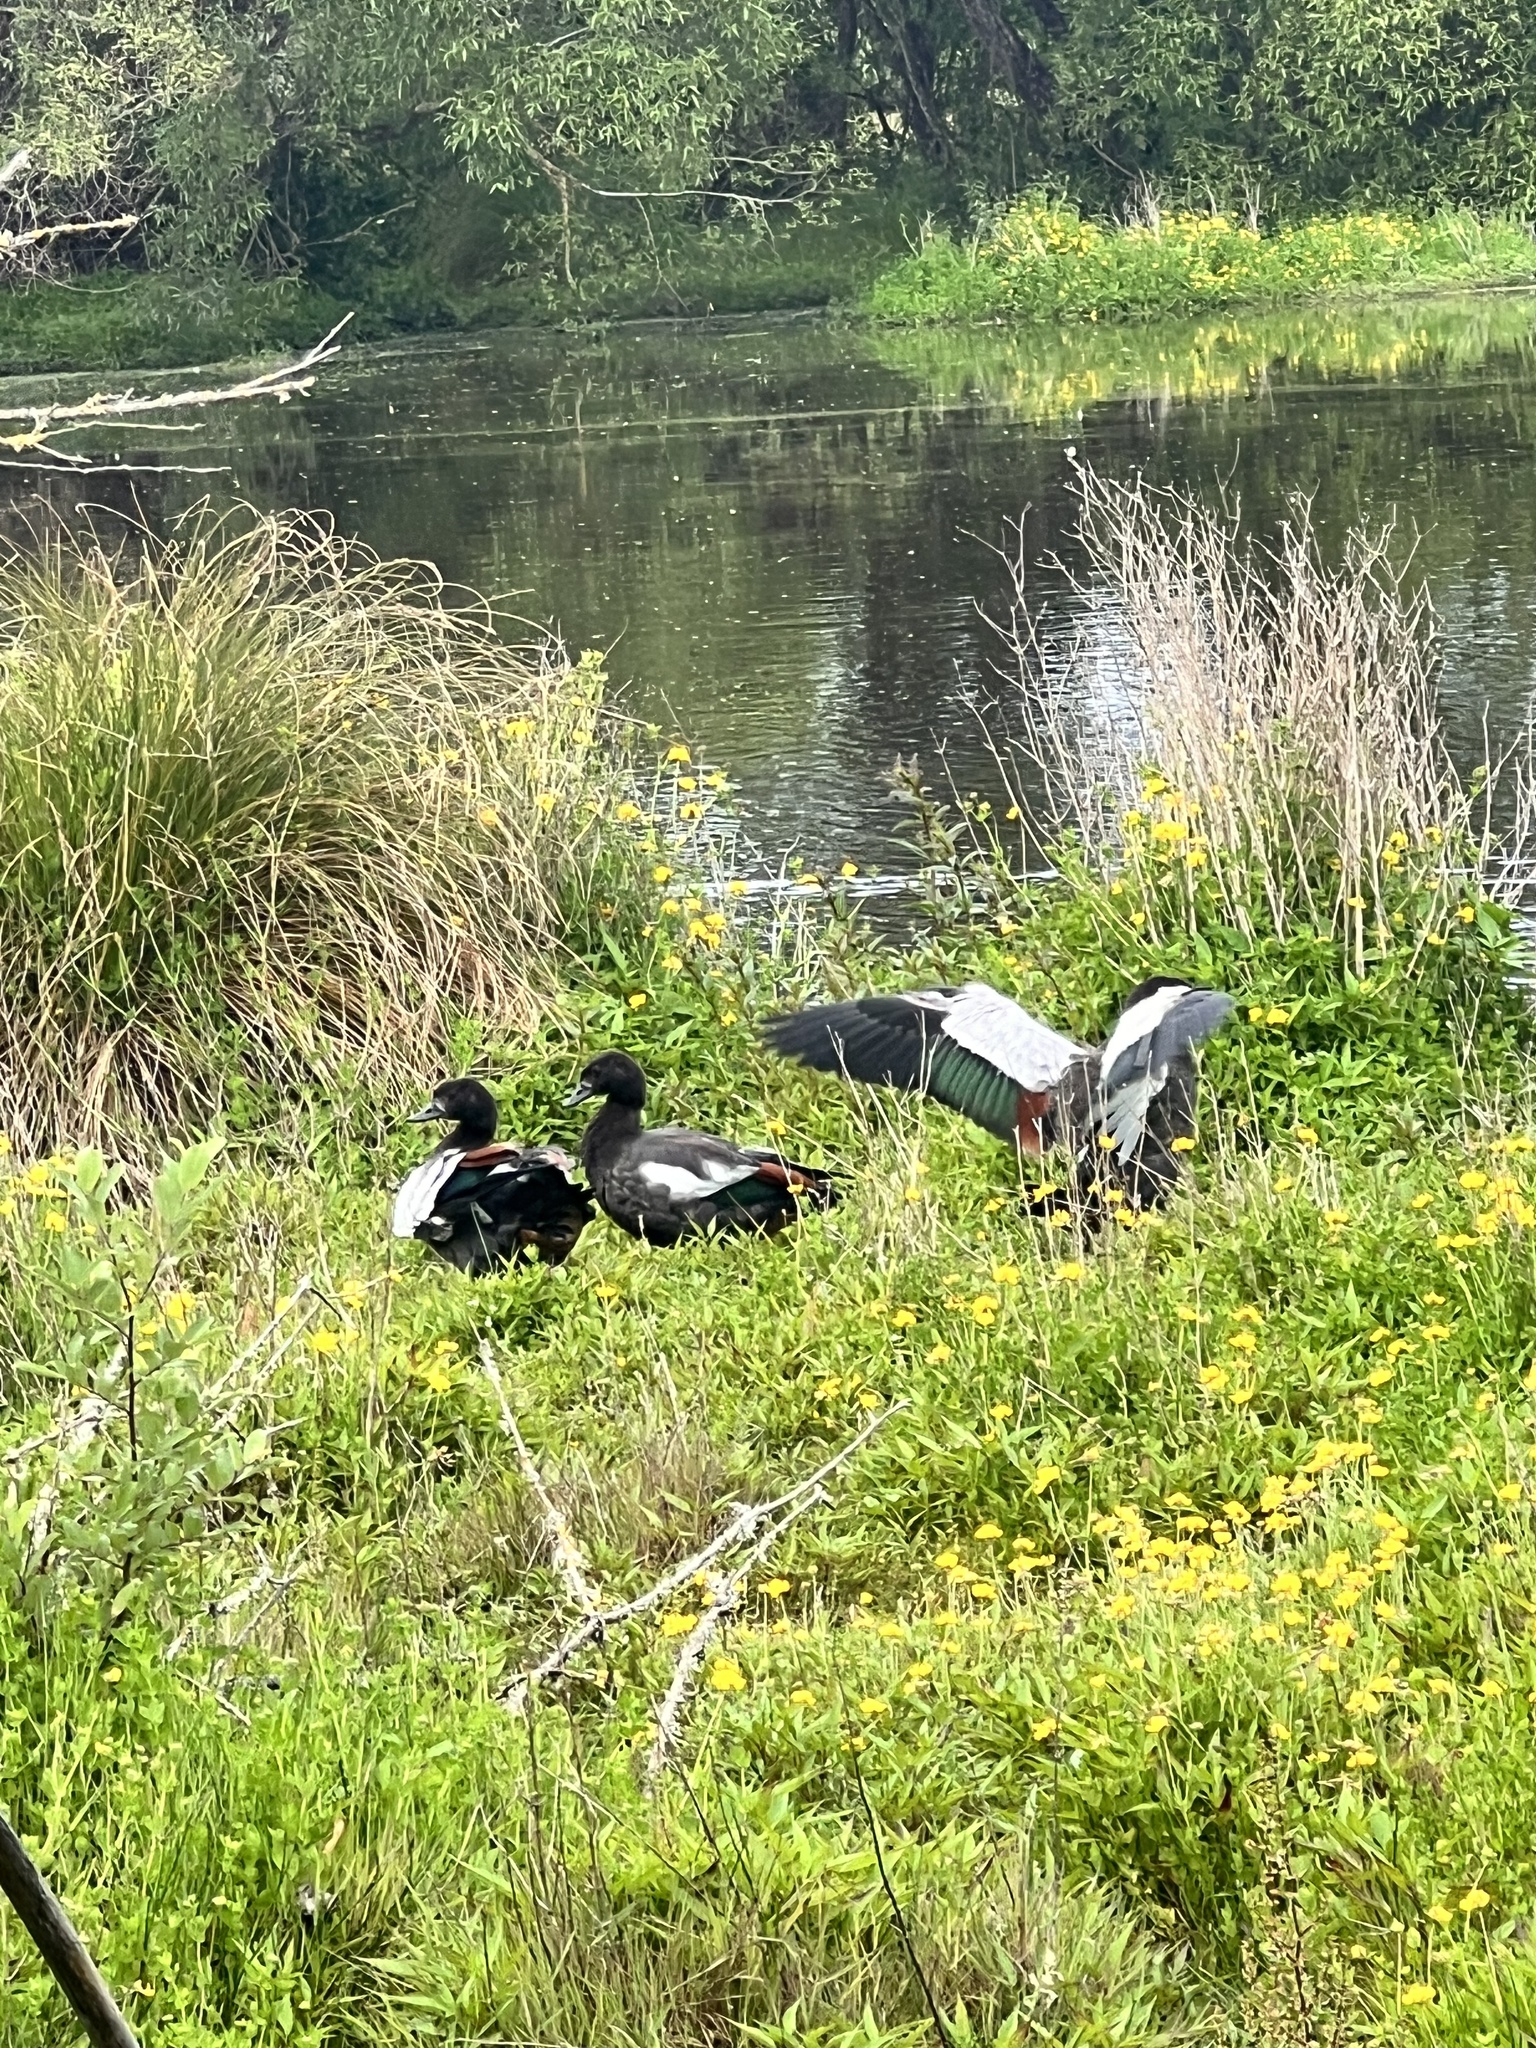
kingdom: Animalia
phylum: Chordata
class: Aves
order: Anseriformes
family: Anatidae
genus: Tadorna
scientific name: Tadorna variegata
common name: Paradise shelduck
